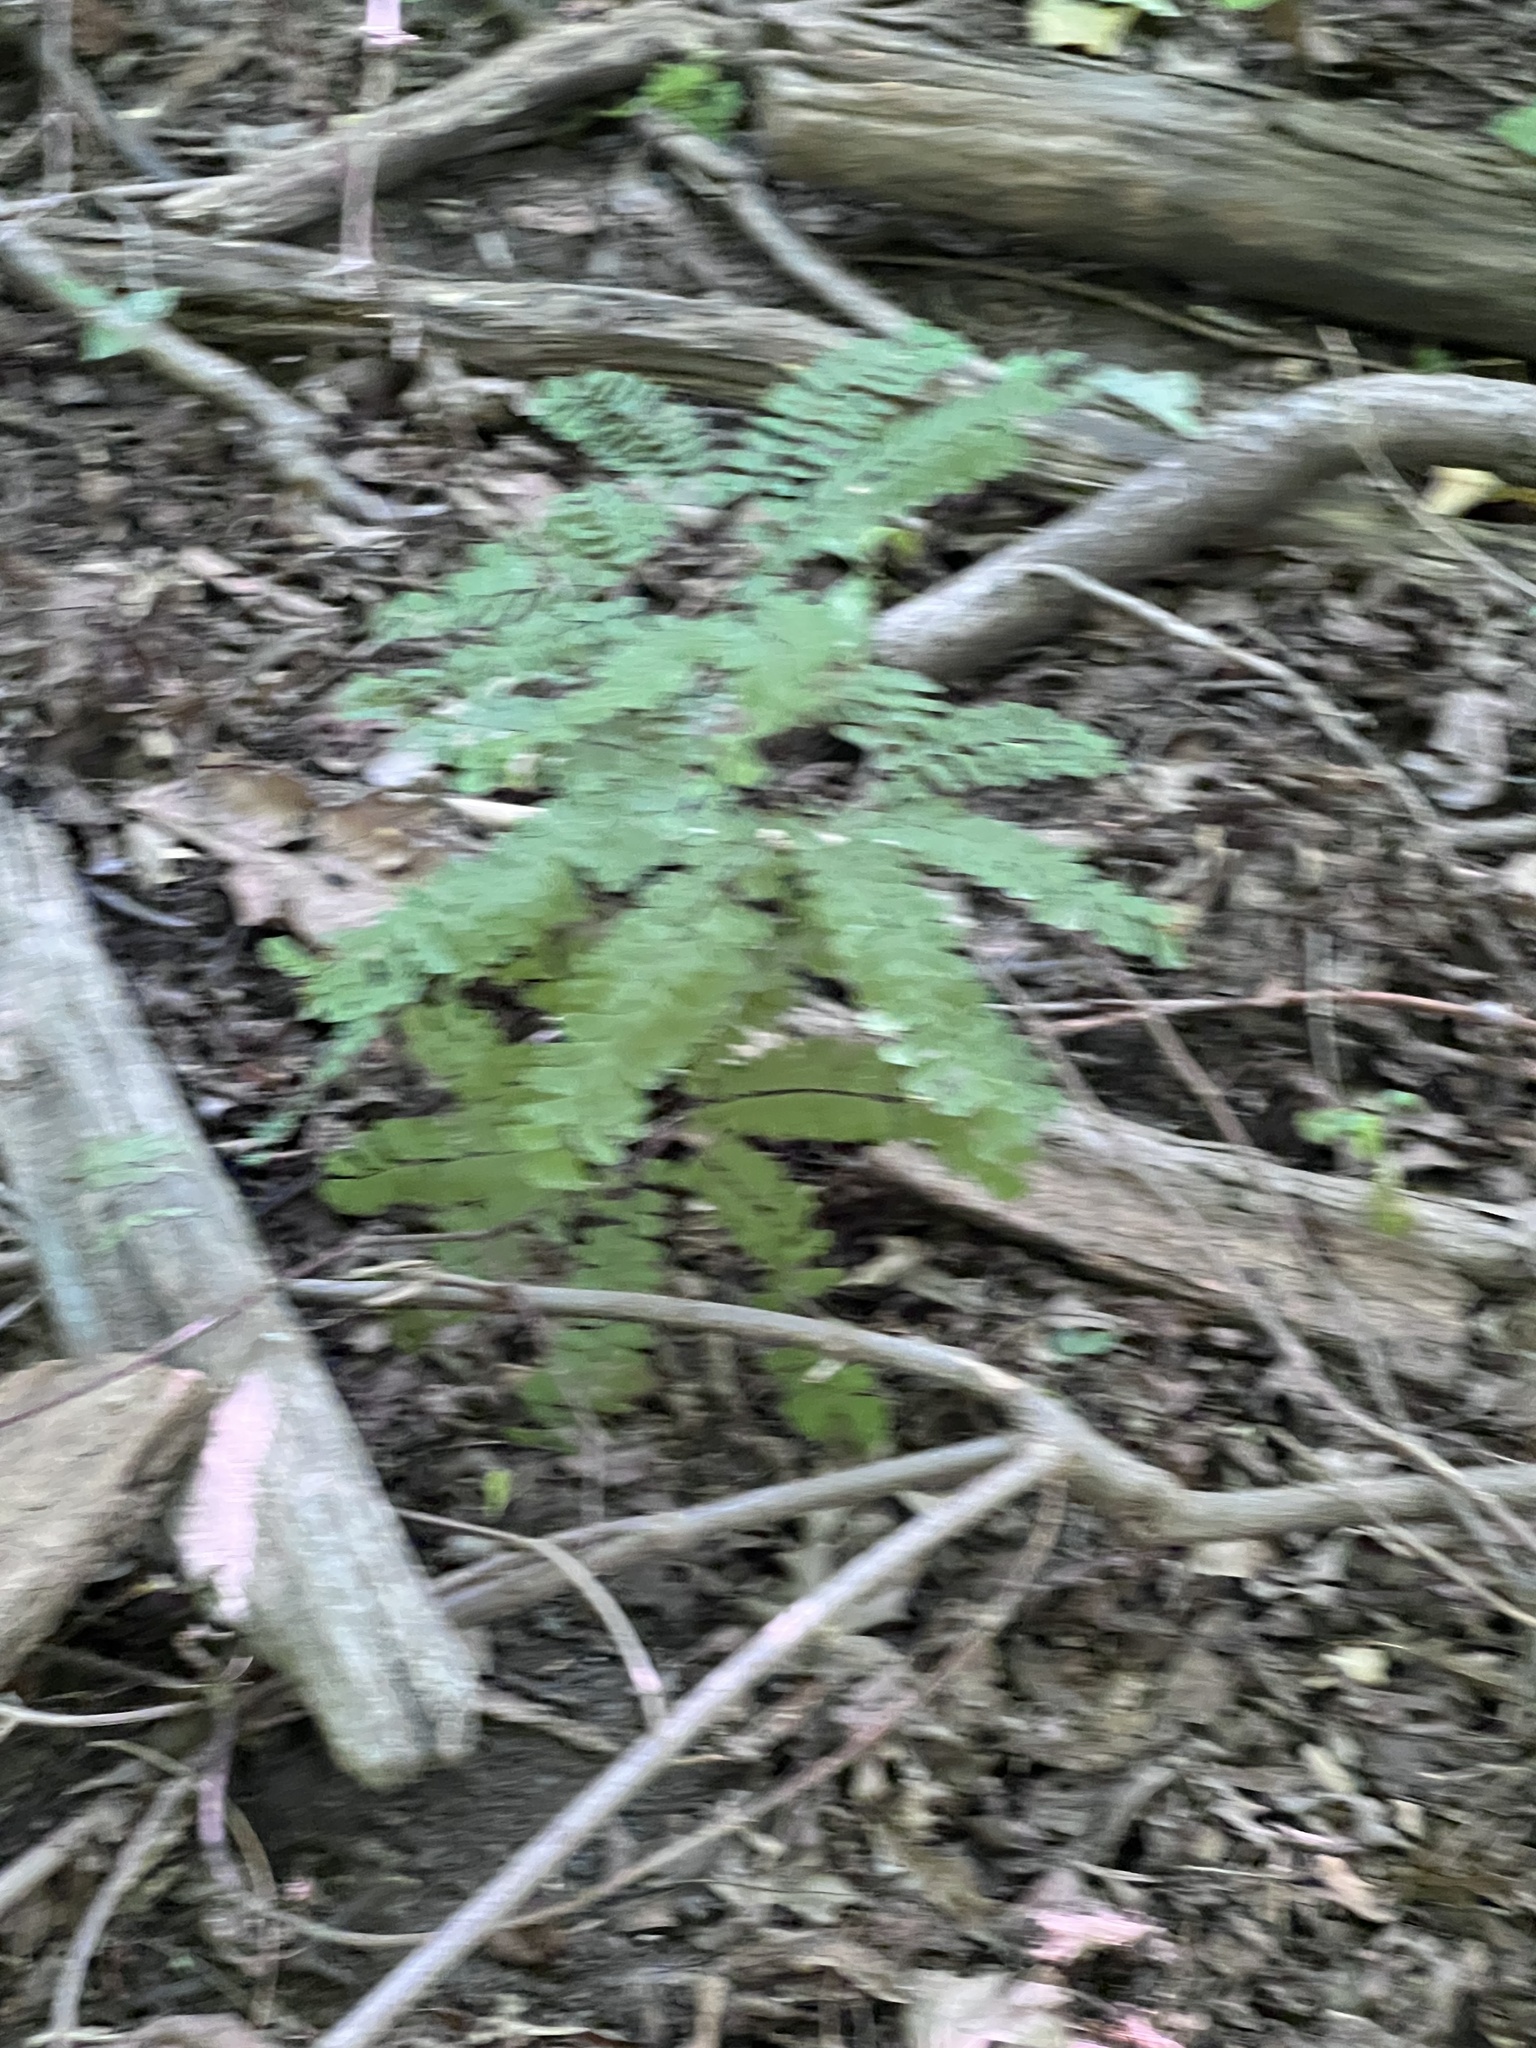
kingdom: Plantae
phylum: Tracheophyta
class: Polypodiopsida
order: Polypodiales
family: Pteridaceae
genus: Adiantum
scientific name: Adiantum pedatum
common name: Five-finger fern
